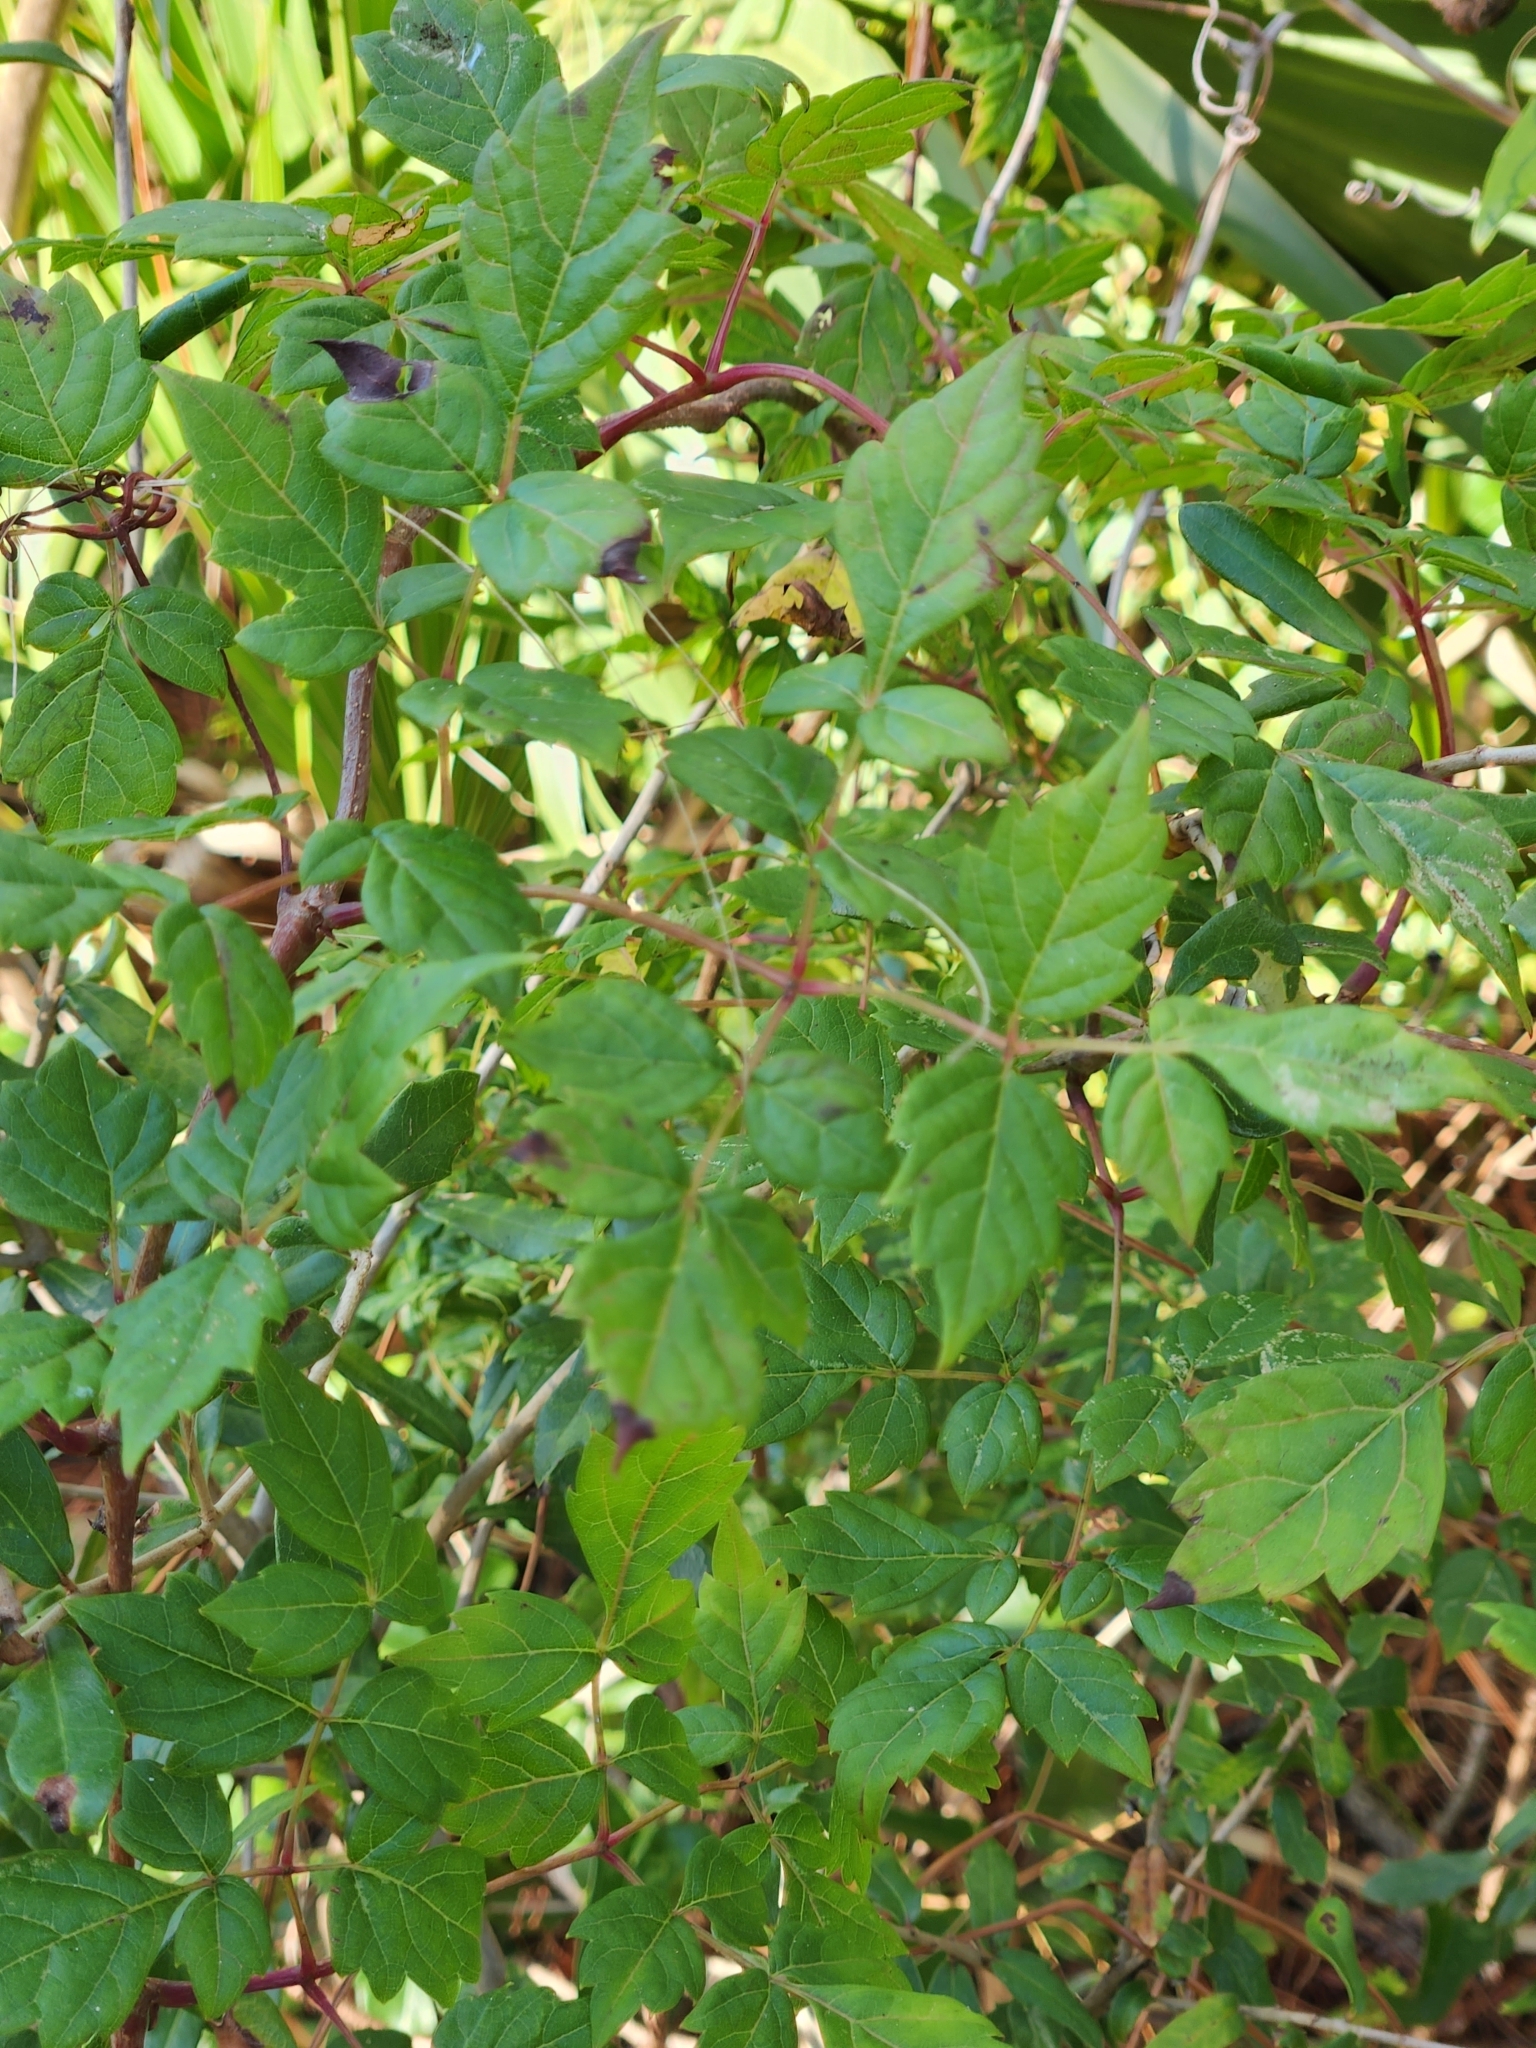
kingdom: Plantae
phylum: Tracheophyta
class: Magnoliopsida
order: Vitales
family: Vitaceae
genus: Nekemias
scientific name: Nekemias arborea
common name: Peppervine
